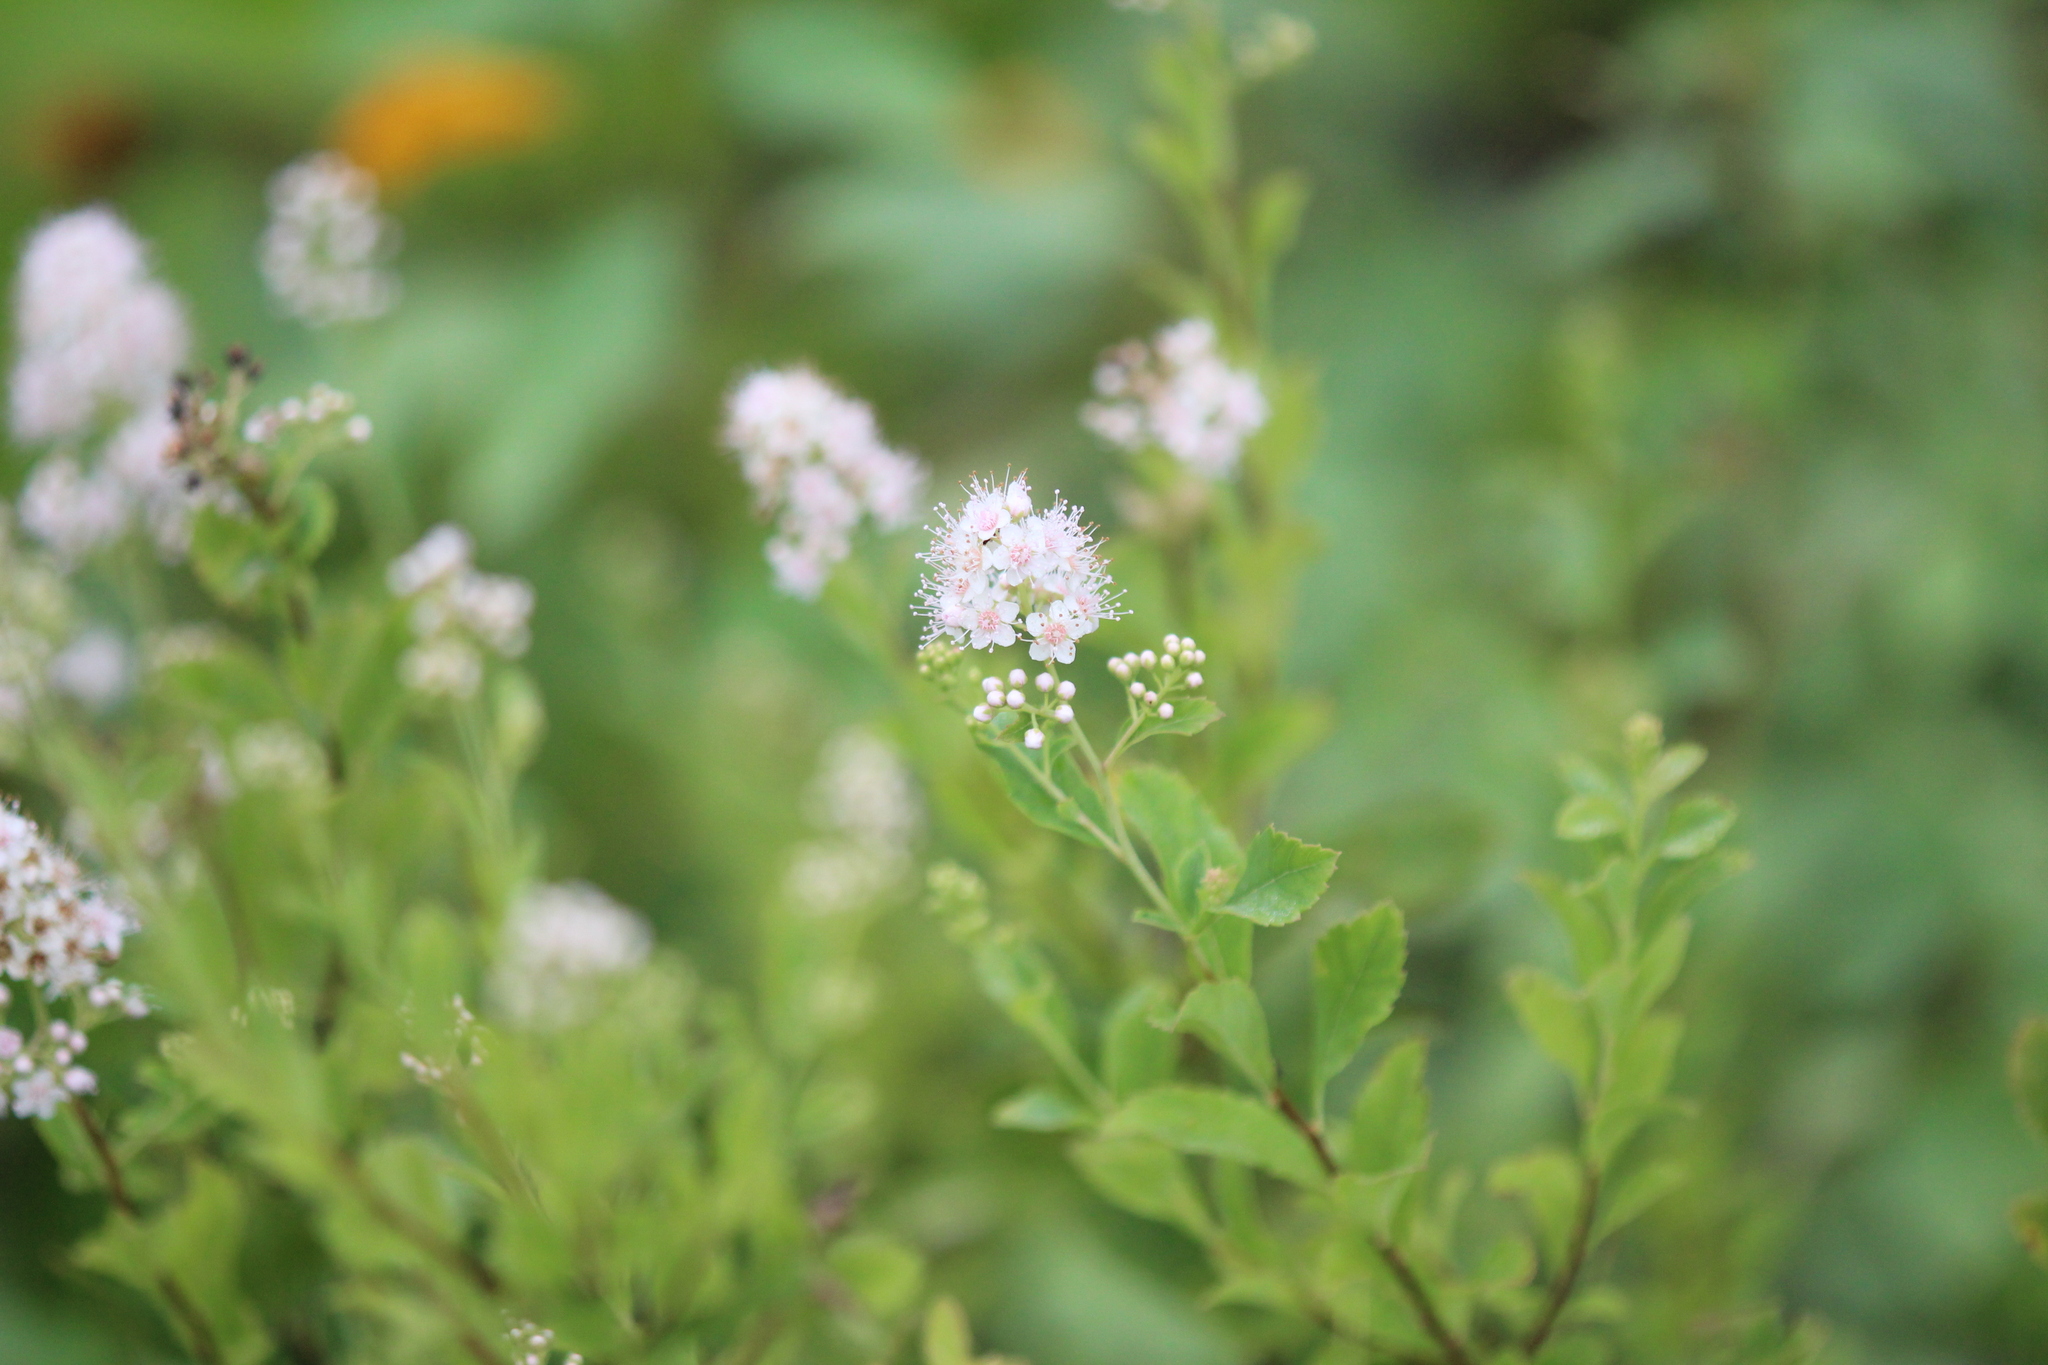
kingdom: Plantae
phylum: Tracheophyta
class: Magnoliopsida
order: Rosales
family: Rosaceae
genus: Spiraea
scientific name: Spiraea alba
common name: Pale bridewort
